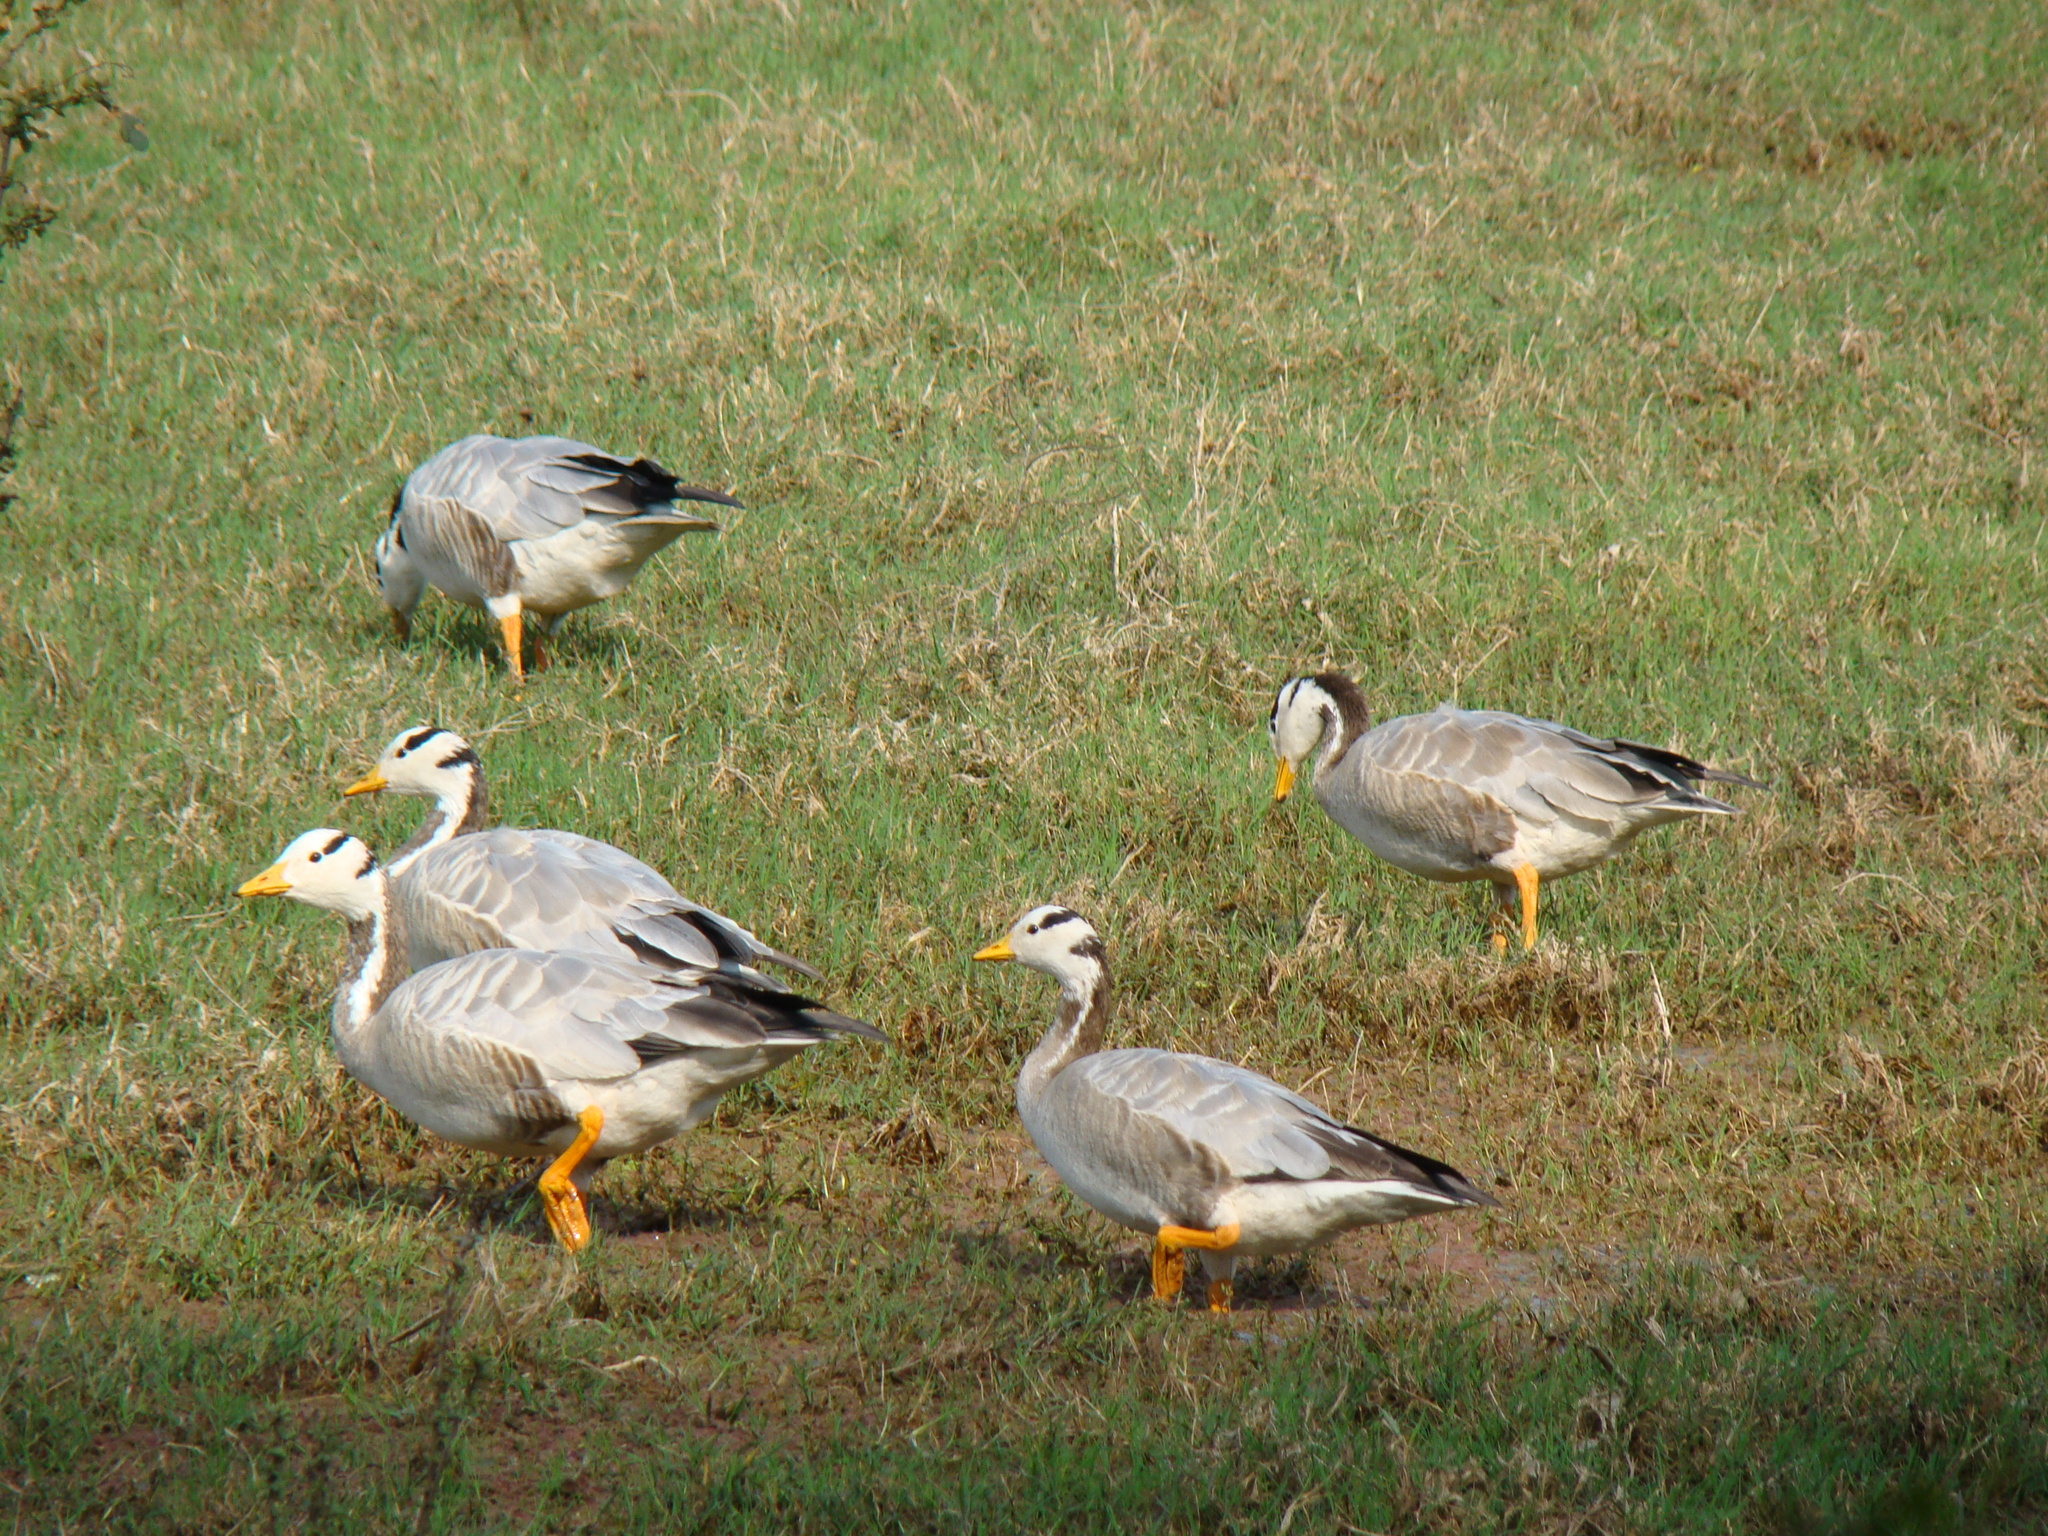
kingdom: Animalia
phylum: Chordata
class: Aves
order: Anseriformes
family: Anatidae
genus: Anser
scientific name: Anser indicus
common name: Bar-headed goose
